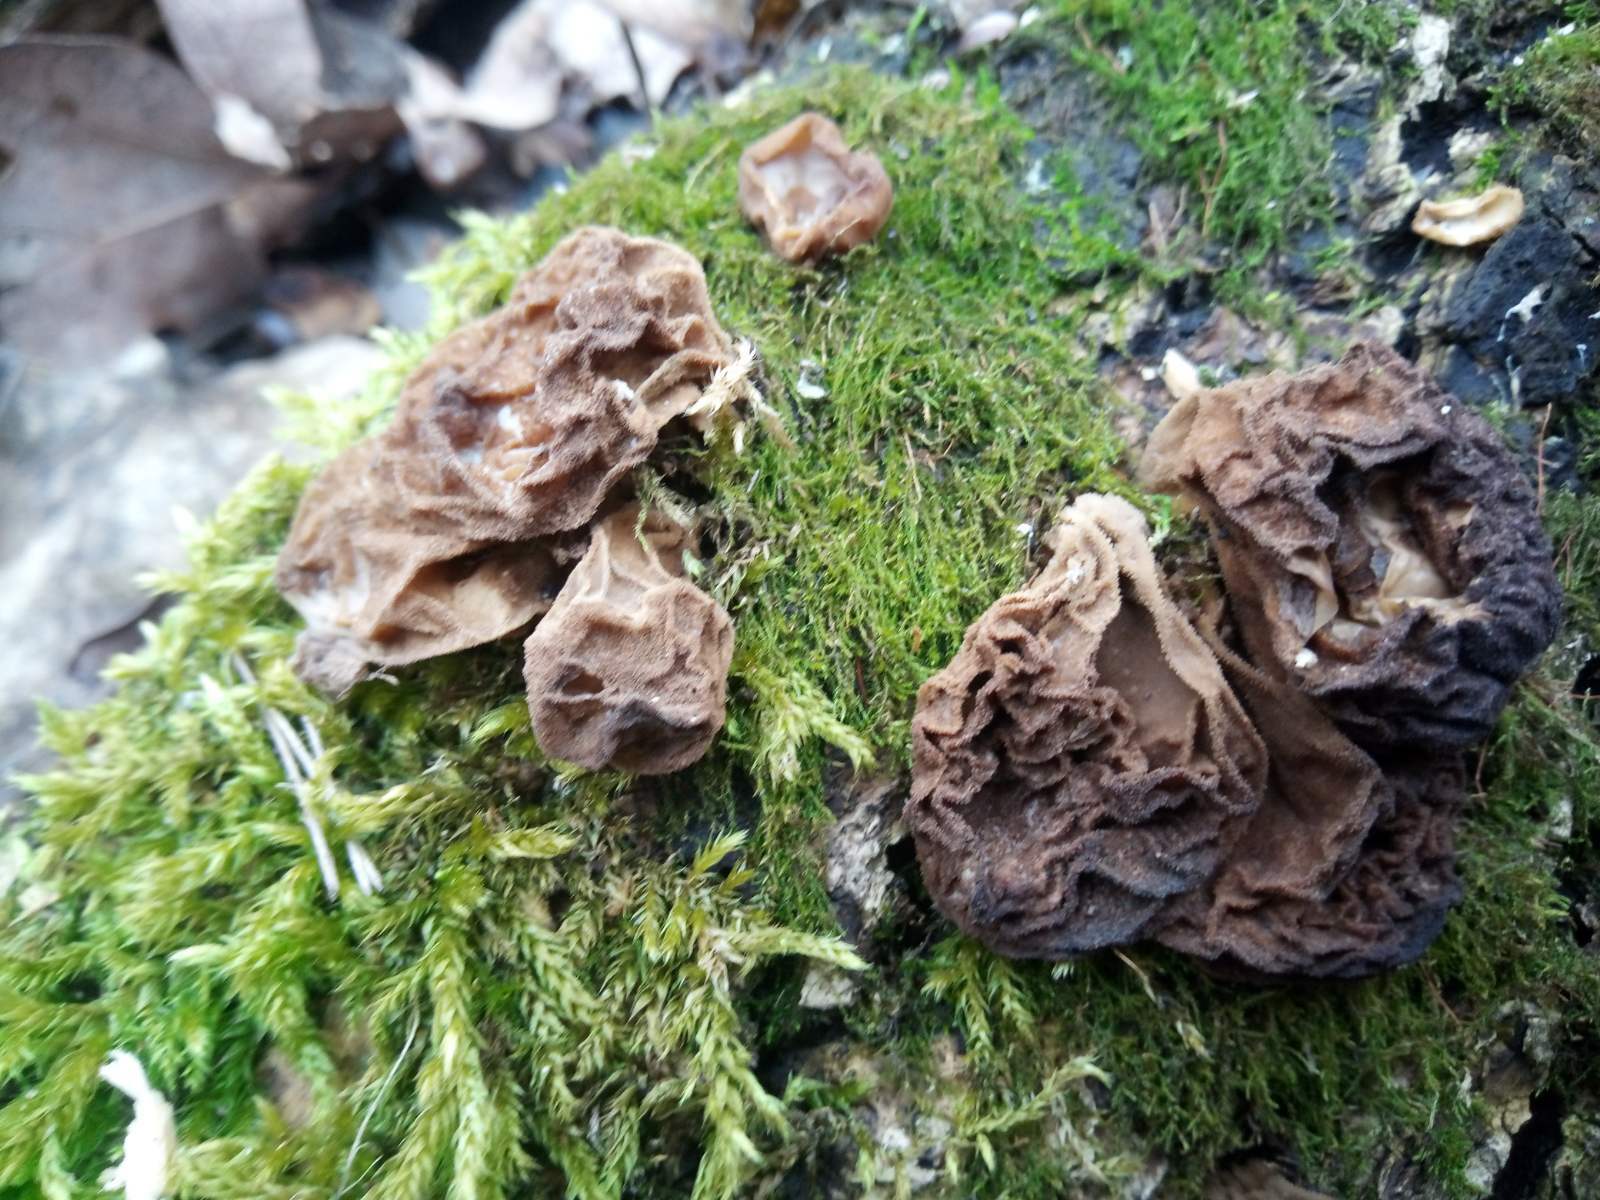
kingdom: Fungi
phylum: Basidiomycota
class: Agaricomycetes
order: Agaricales
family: Lycoperdaceae
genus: Apioperdon
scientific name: Apioperdon pyriforme
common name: Pear-shaped puffball
